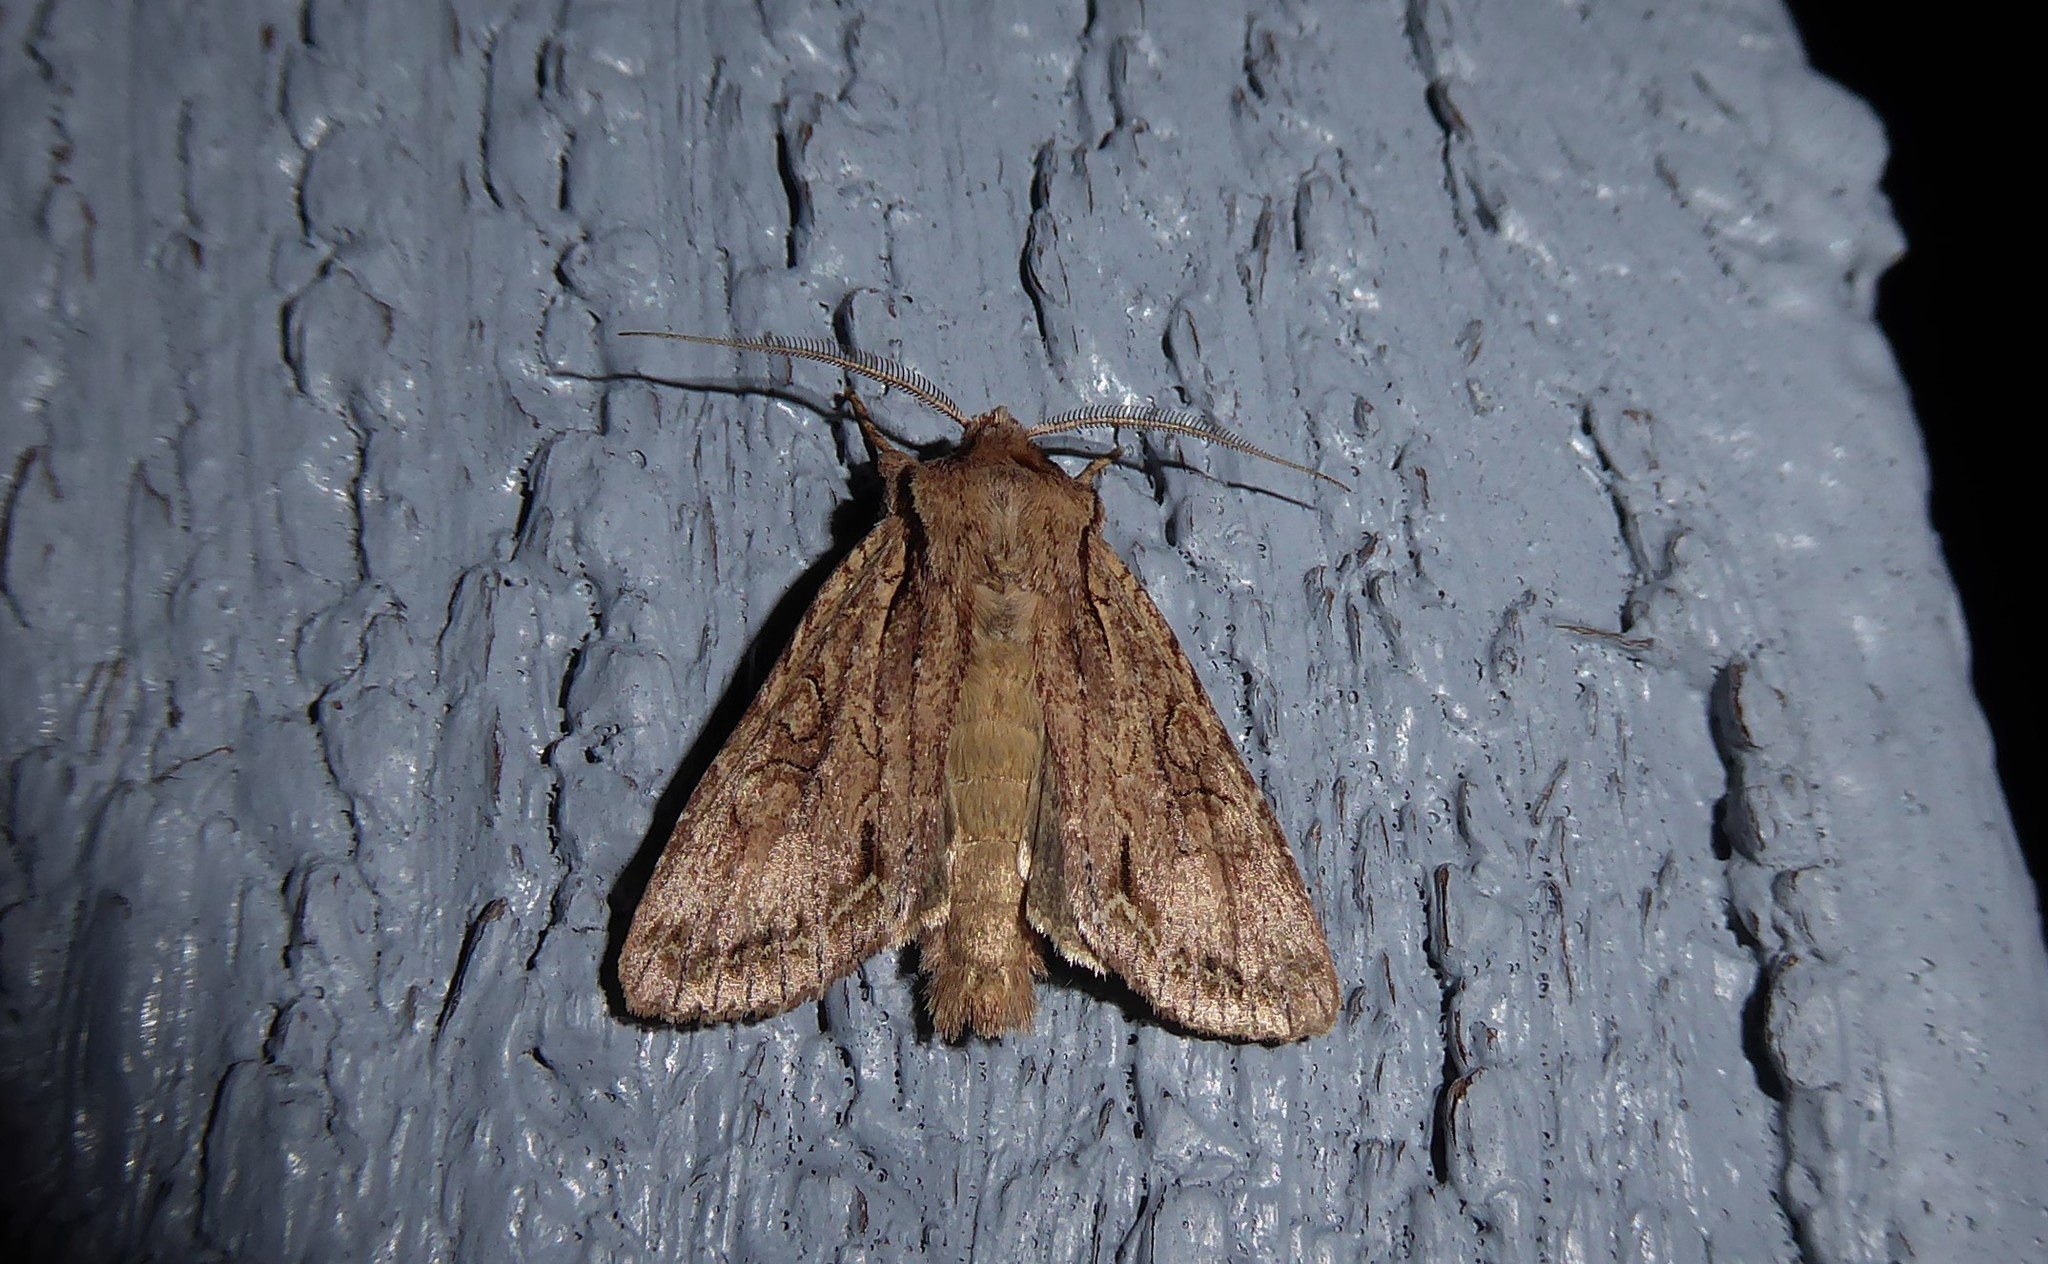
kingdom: Animalia
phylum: Arthropoda
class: Insecta
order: Lepidoptera
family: Noctuidae
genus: Ichneutica
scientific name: Ichneutica
